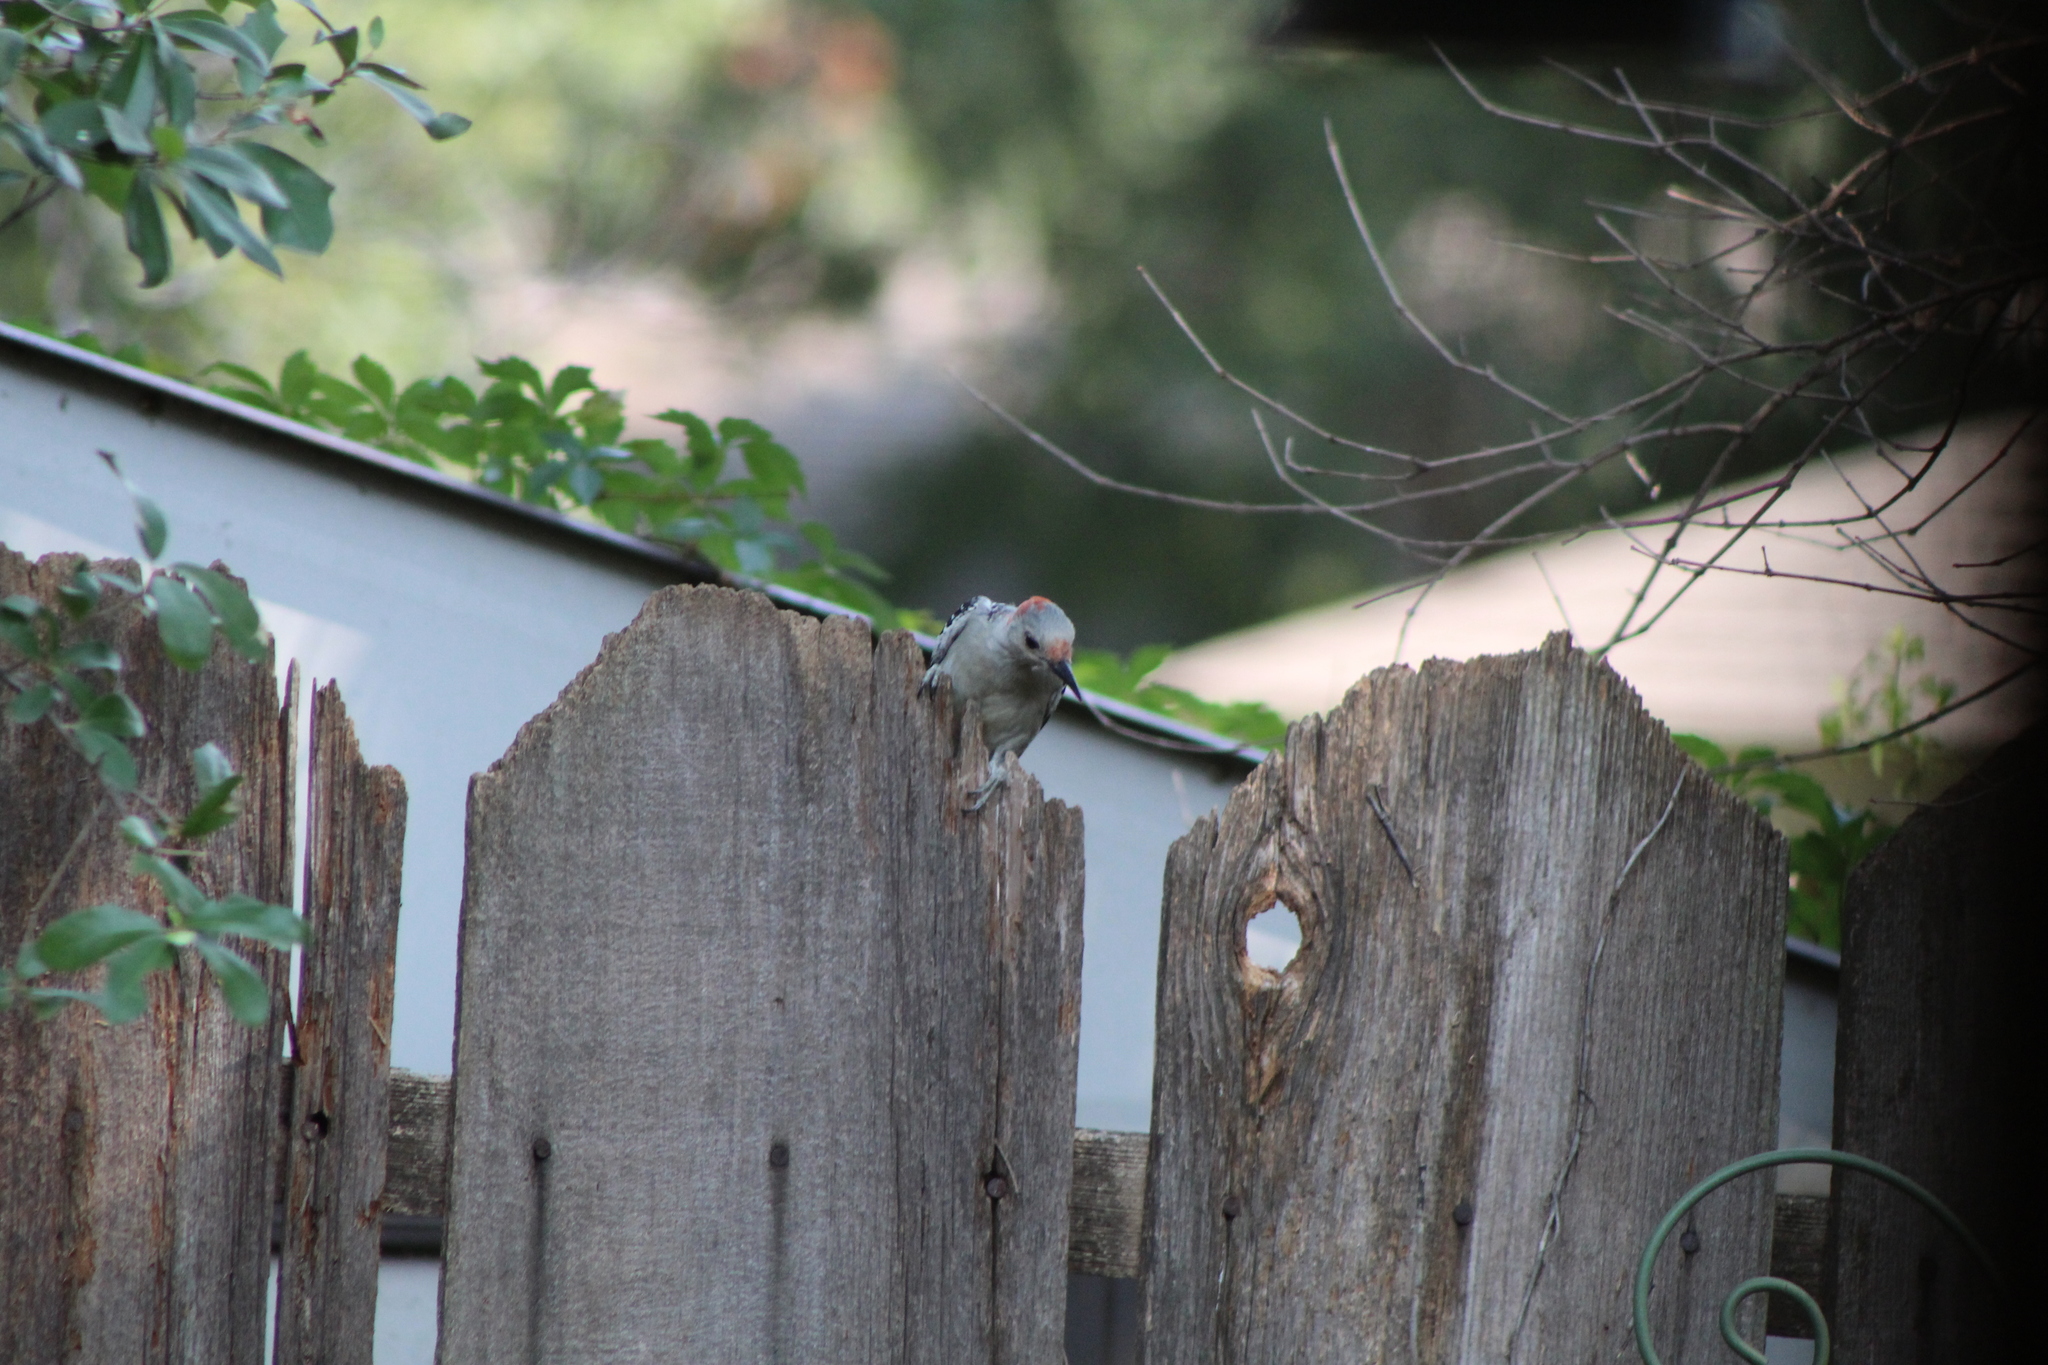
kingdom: Animalia
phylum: Chordata
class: Aves
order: Piciformes
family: Picidae
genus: Melanerpes
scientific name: Melanerpes carolinus
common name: Red-bellied woodpecker
